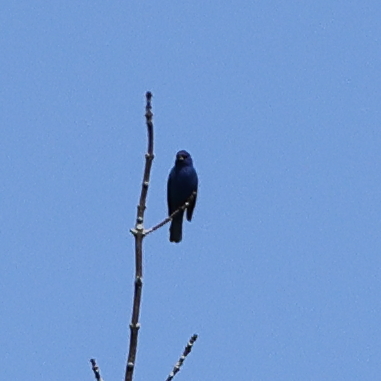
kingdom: Animalia
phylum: Chordata
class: Aves
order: Passeriformes
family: Cardinalidae
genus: Passerina
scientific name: Passerina cyanea
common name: Indigo bunting
